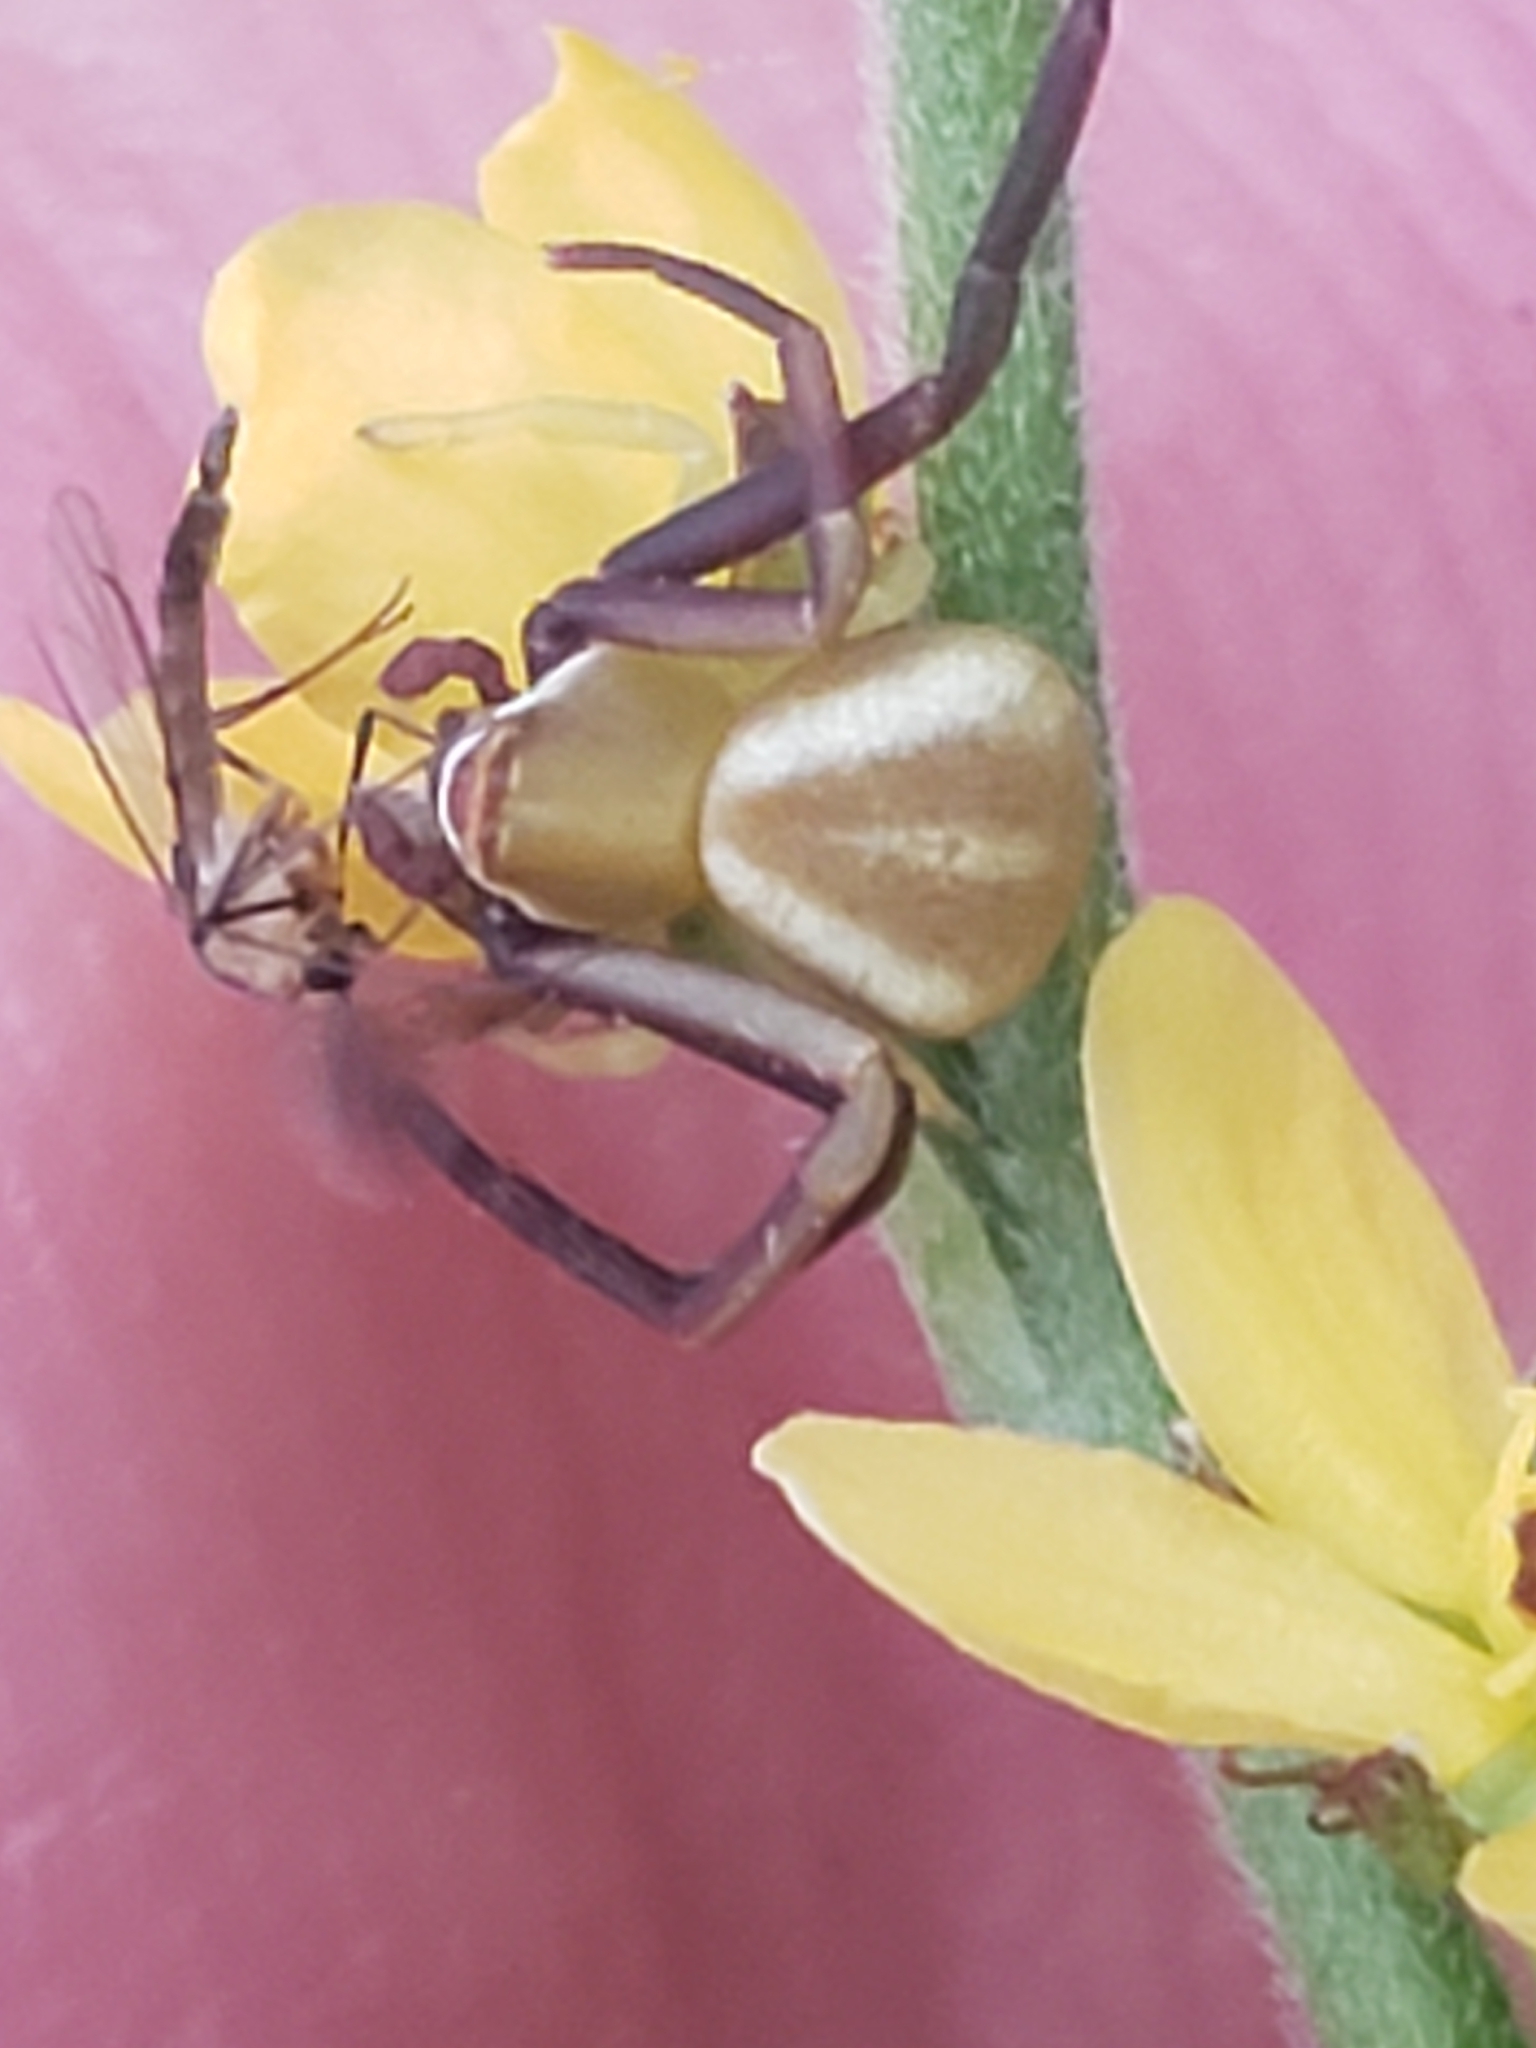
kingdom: Animalia
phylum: Arthropoda
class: Arachnida
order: Araneae
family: Thomisidae
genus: Misumenoides
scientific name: Misumenoides formosipes
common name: White-banded crab spider
